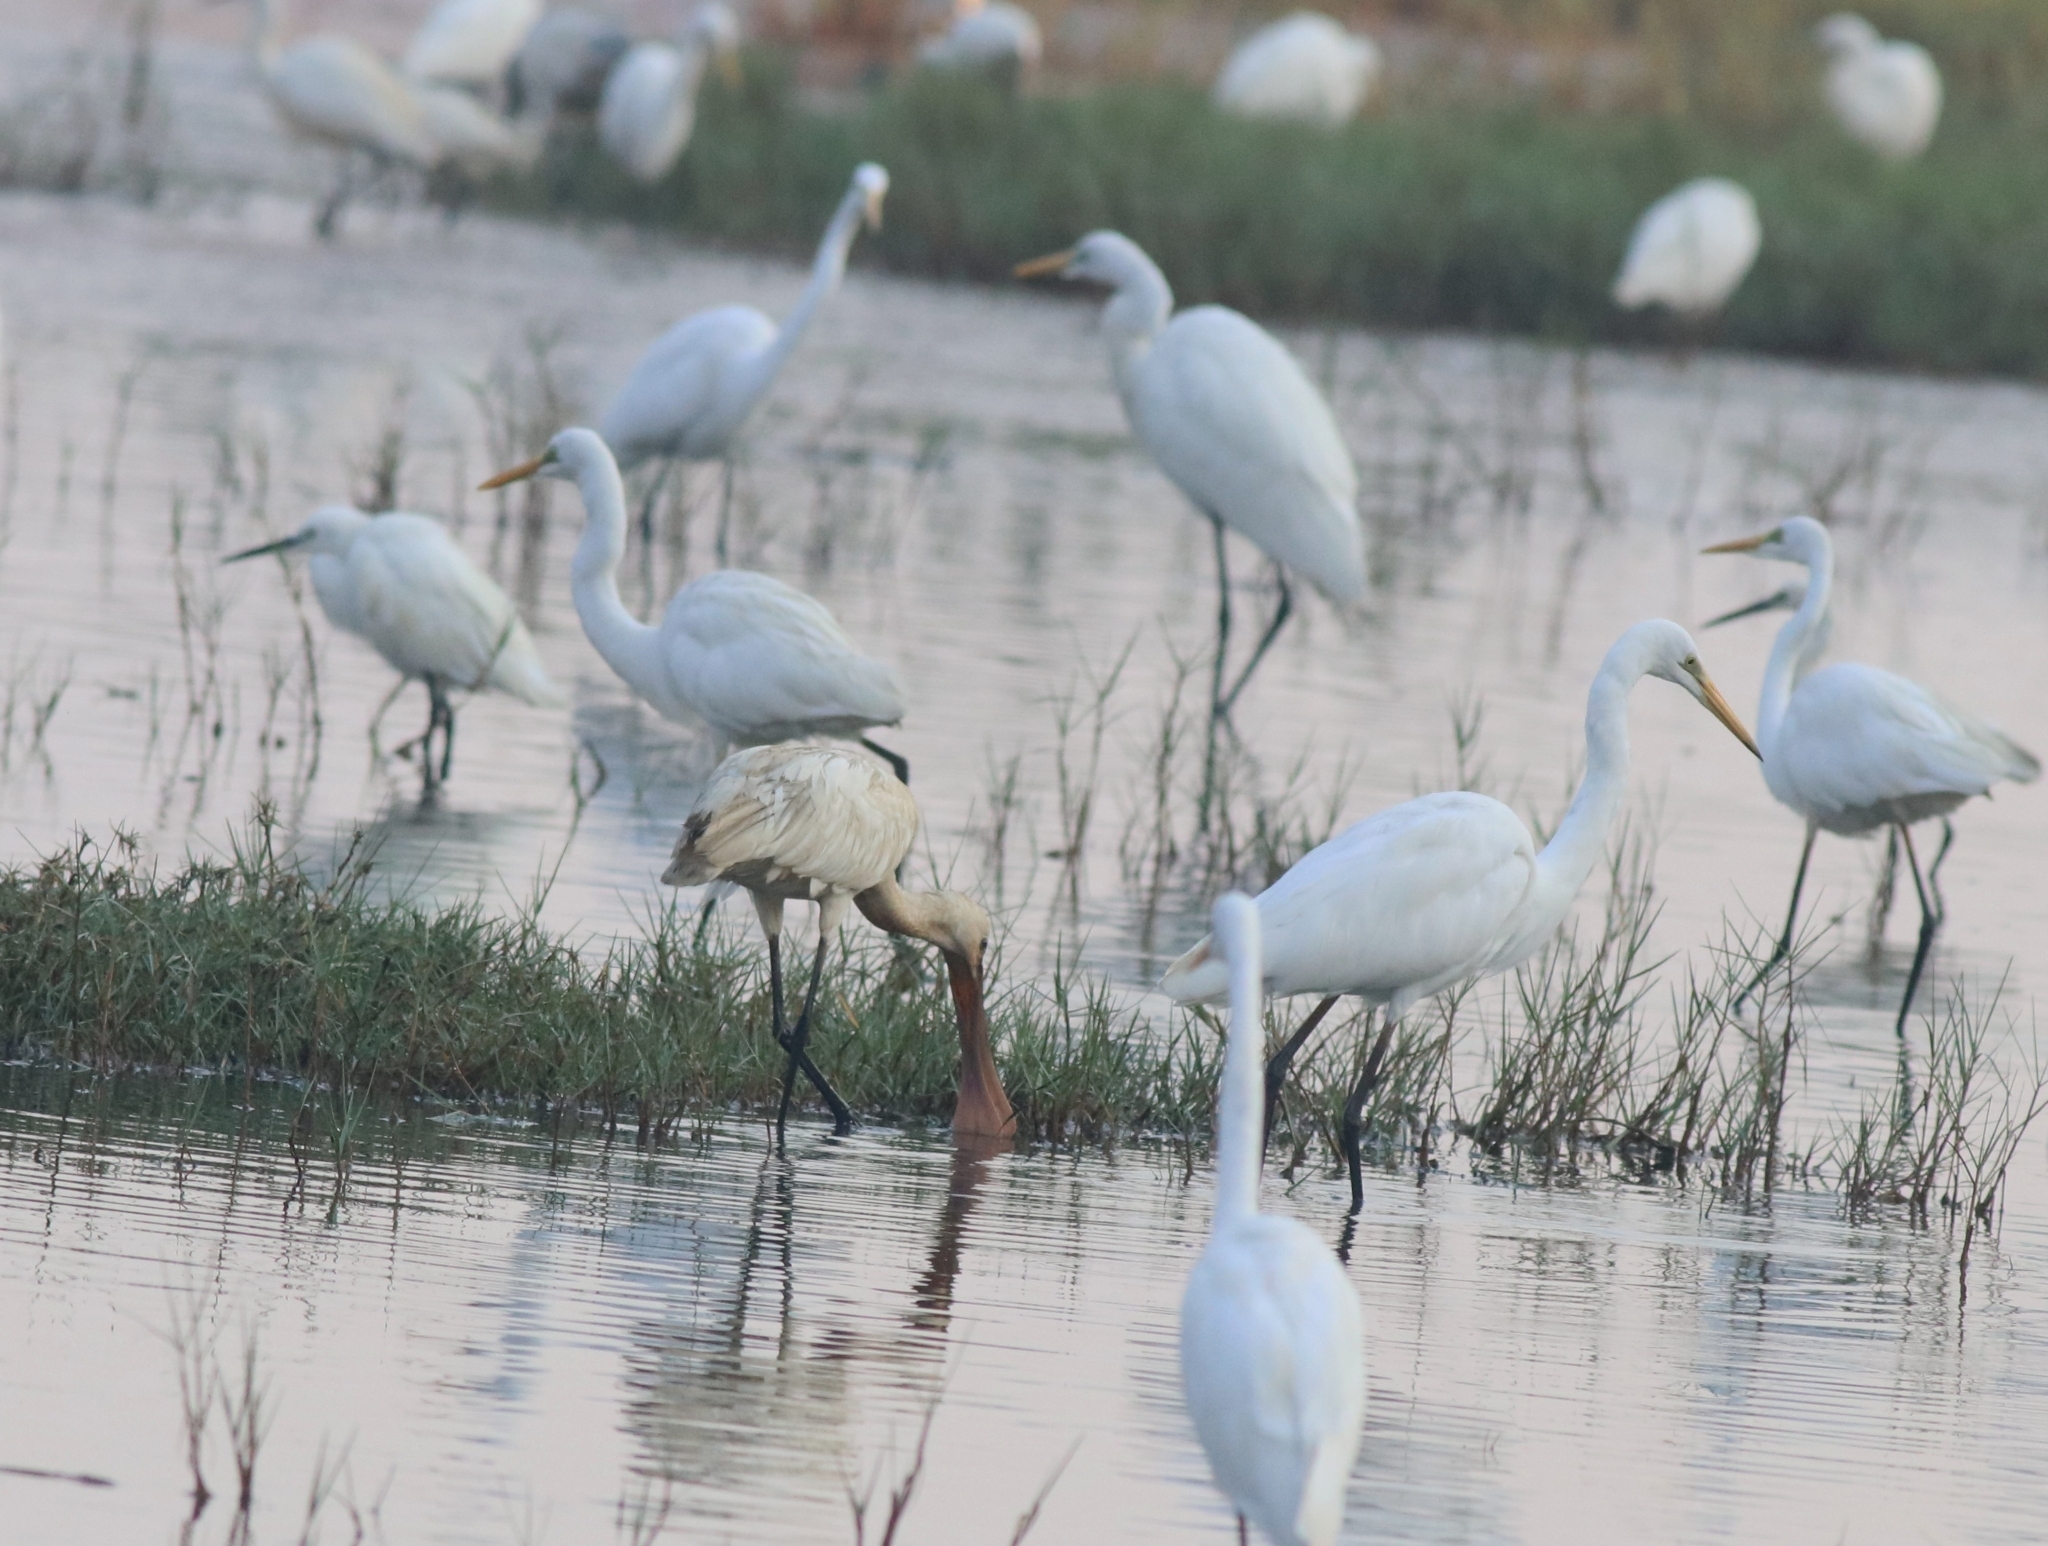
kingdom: Animalia
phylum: Chordata
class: Aves
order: Pelecaniformes
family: Ardeidae
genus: Ardea
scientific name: Ardea alba
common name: Great egret
